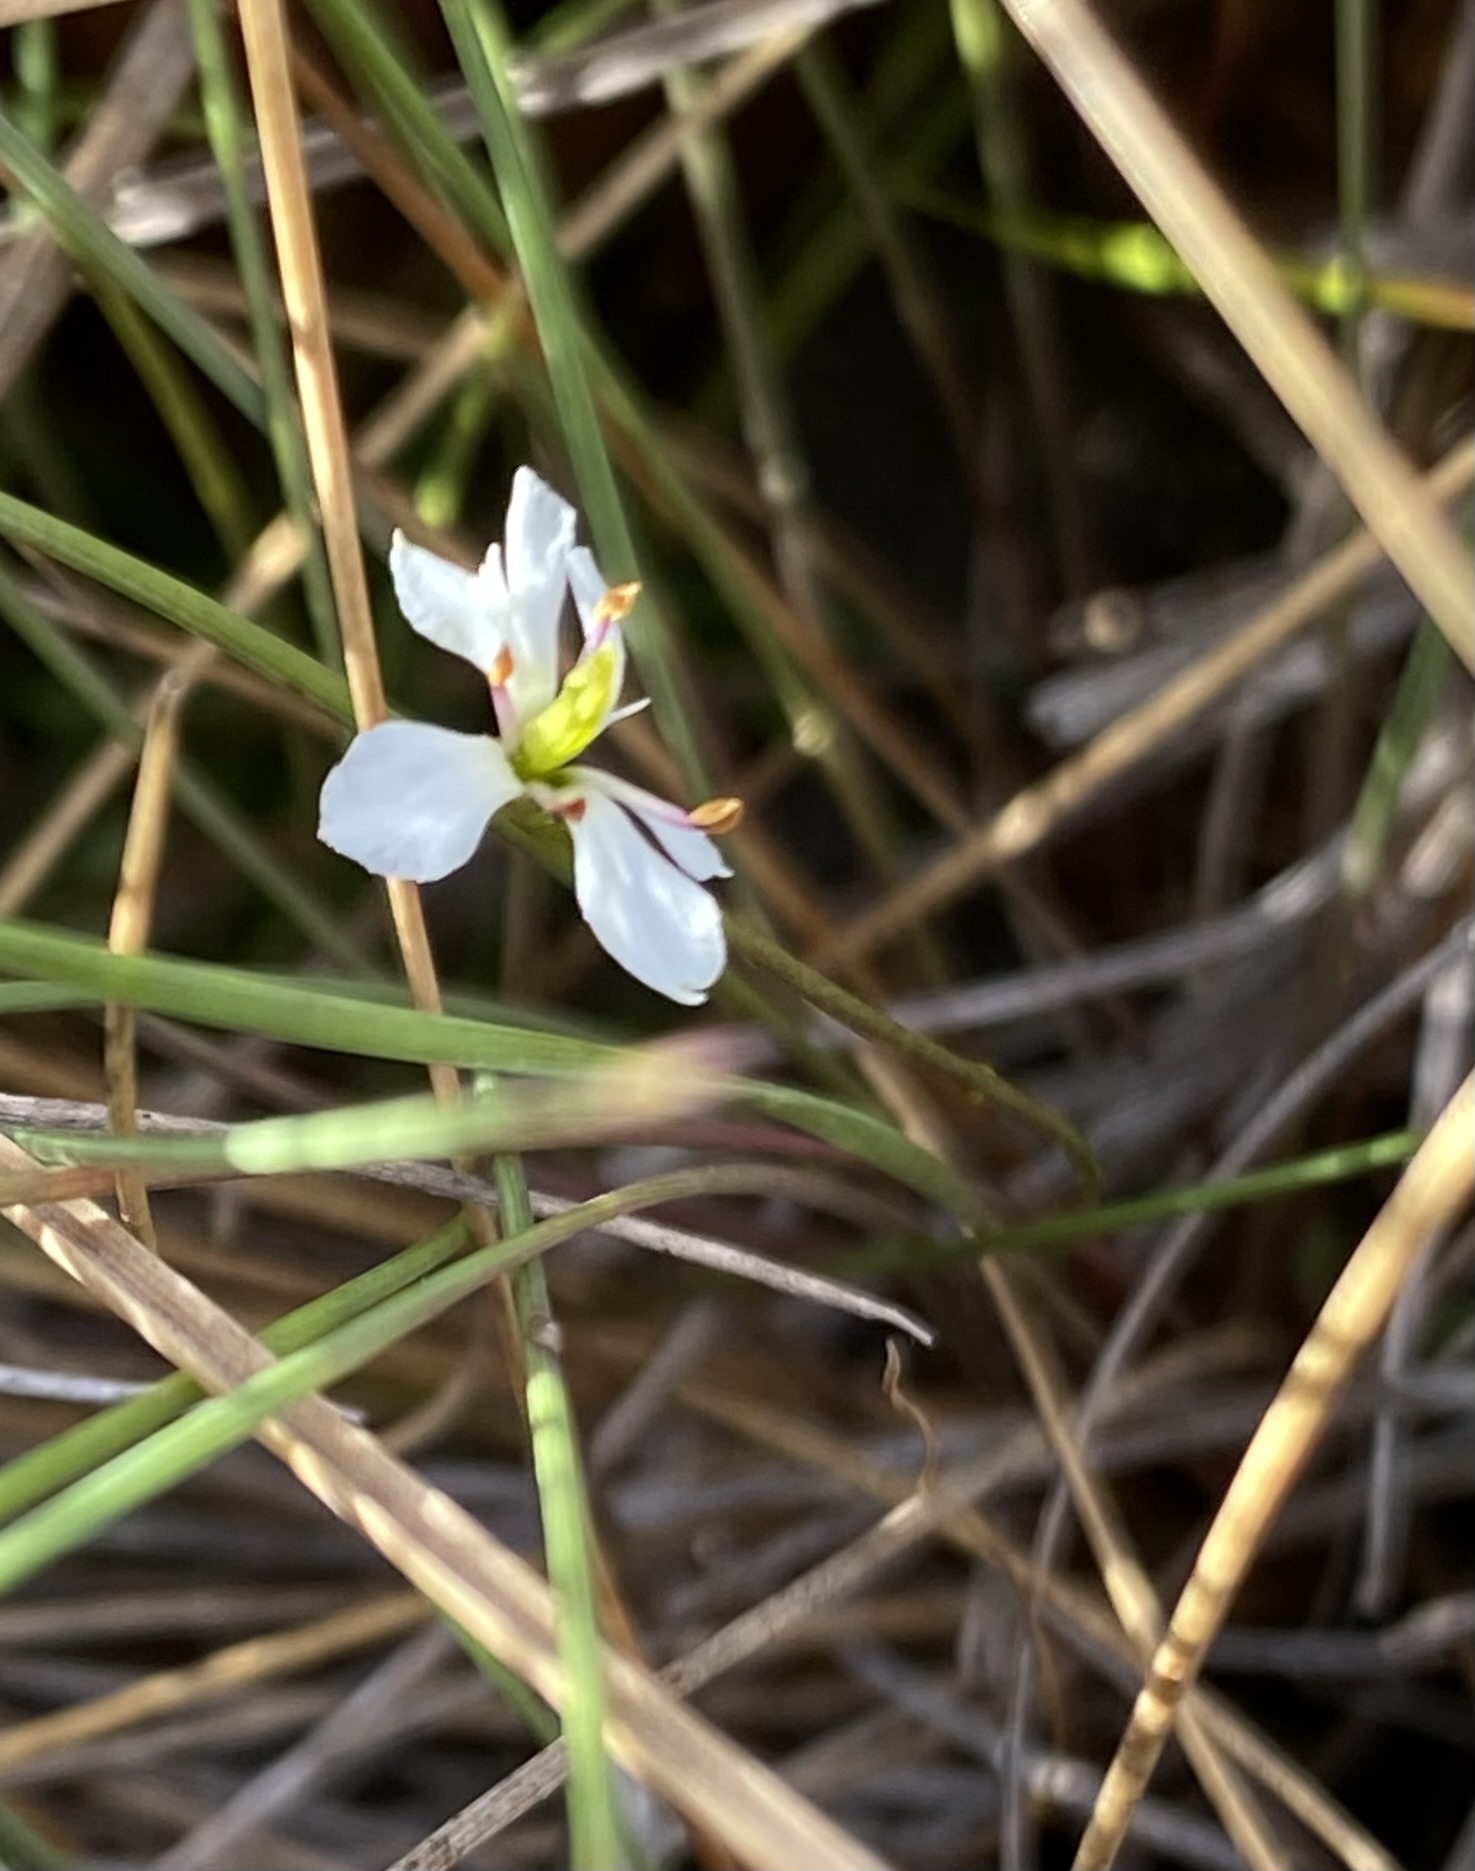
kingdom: Plantae
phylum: Tracheophyta
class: Magnoliopsida
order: Gentianales
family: Gentianaceae
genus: Bartonia
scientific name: Bartonia verna
